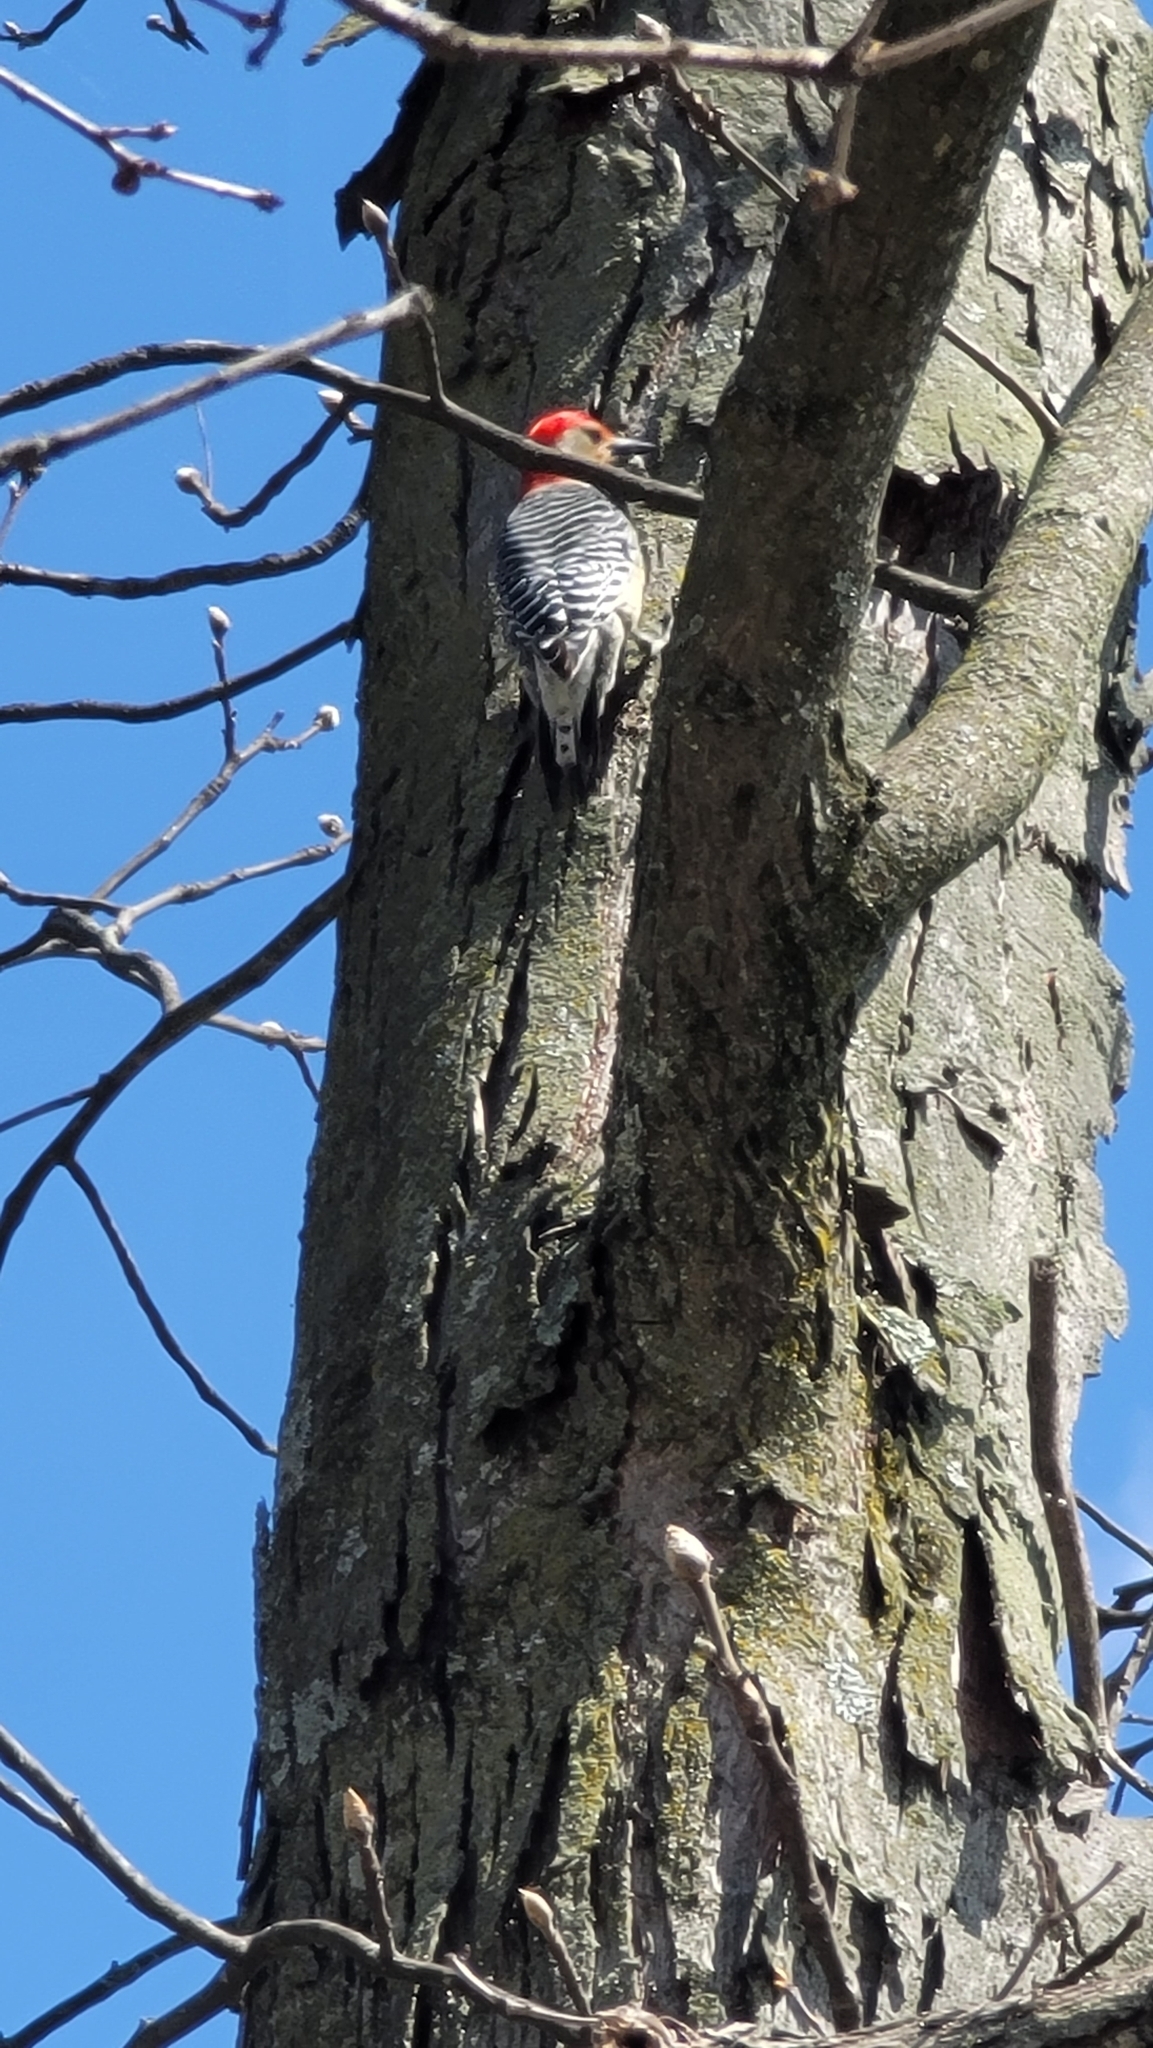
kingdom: Animalia
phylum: Chordata
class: Aves
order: Piciformes
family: Picidae
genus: Melanerpes
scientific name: Melanerpes carolinus
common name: Red-bellied woodpecker
